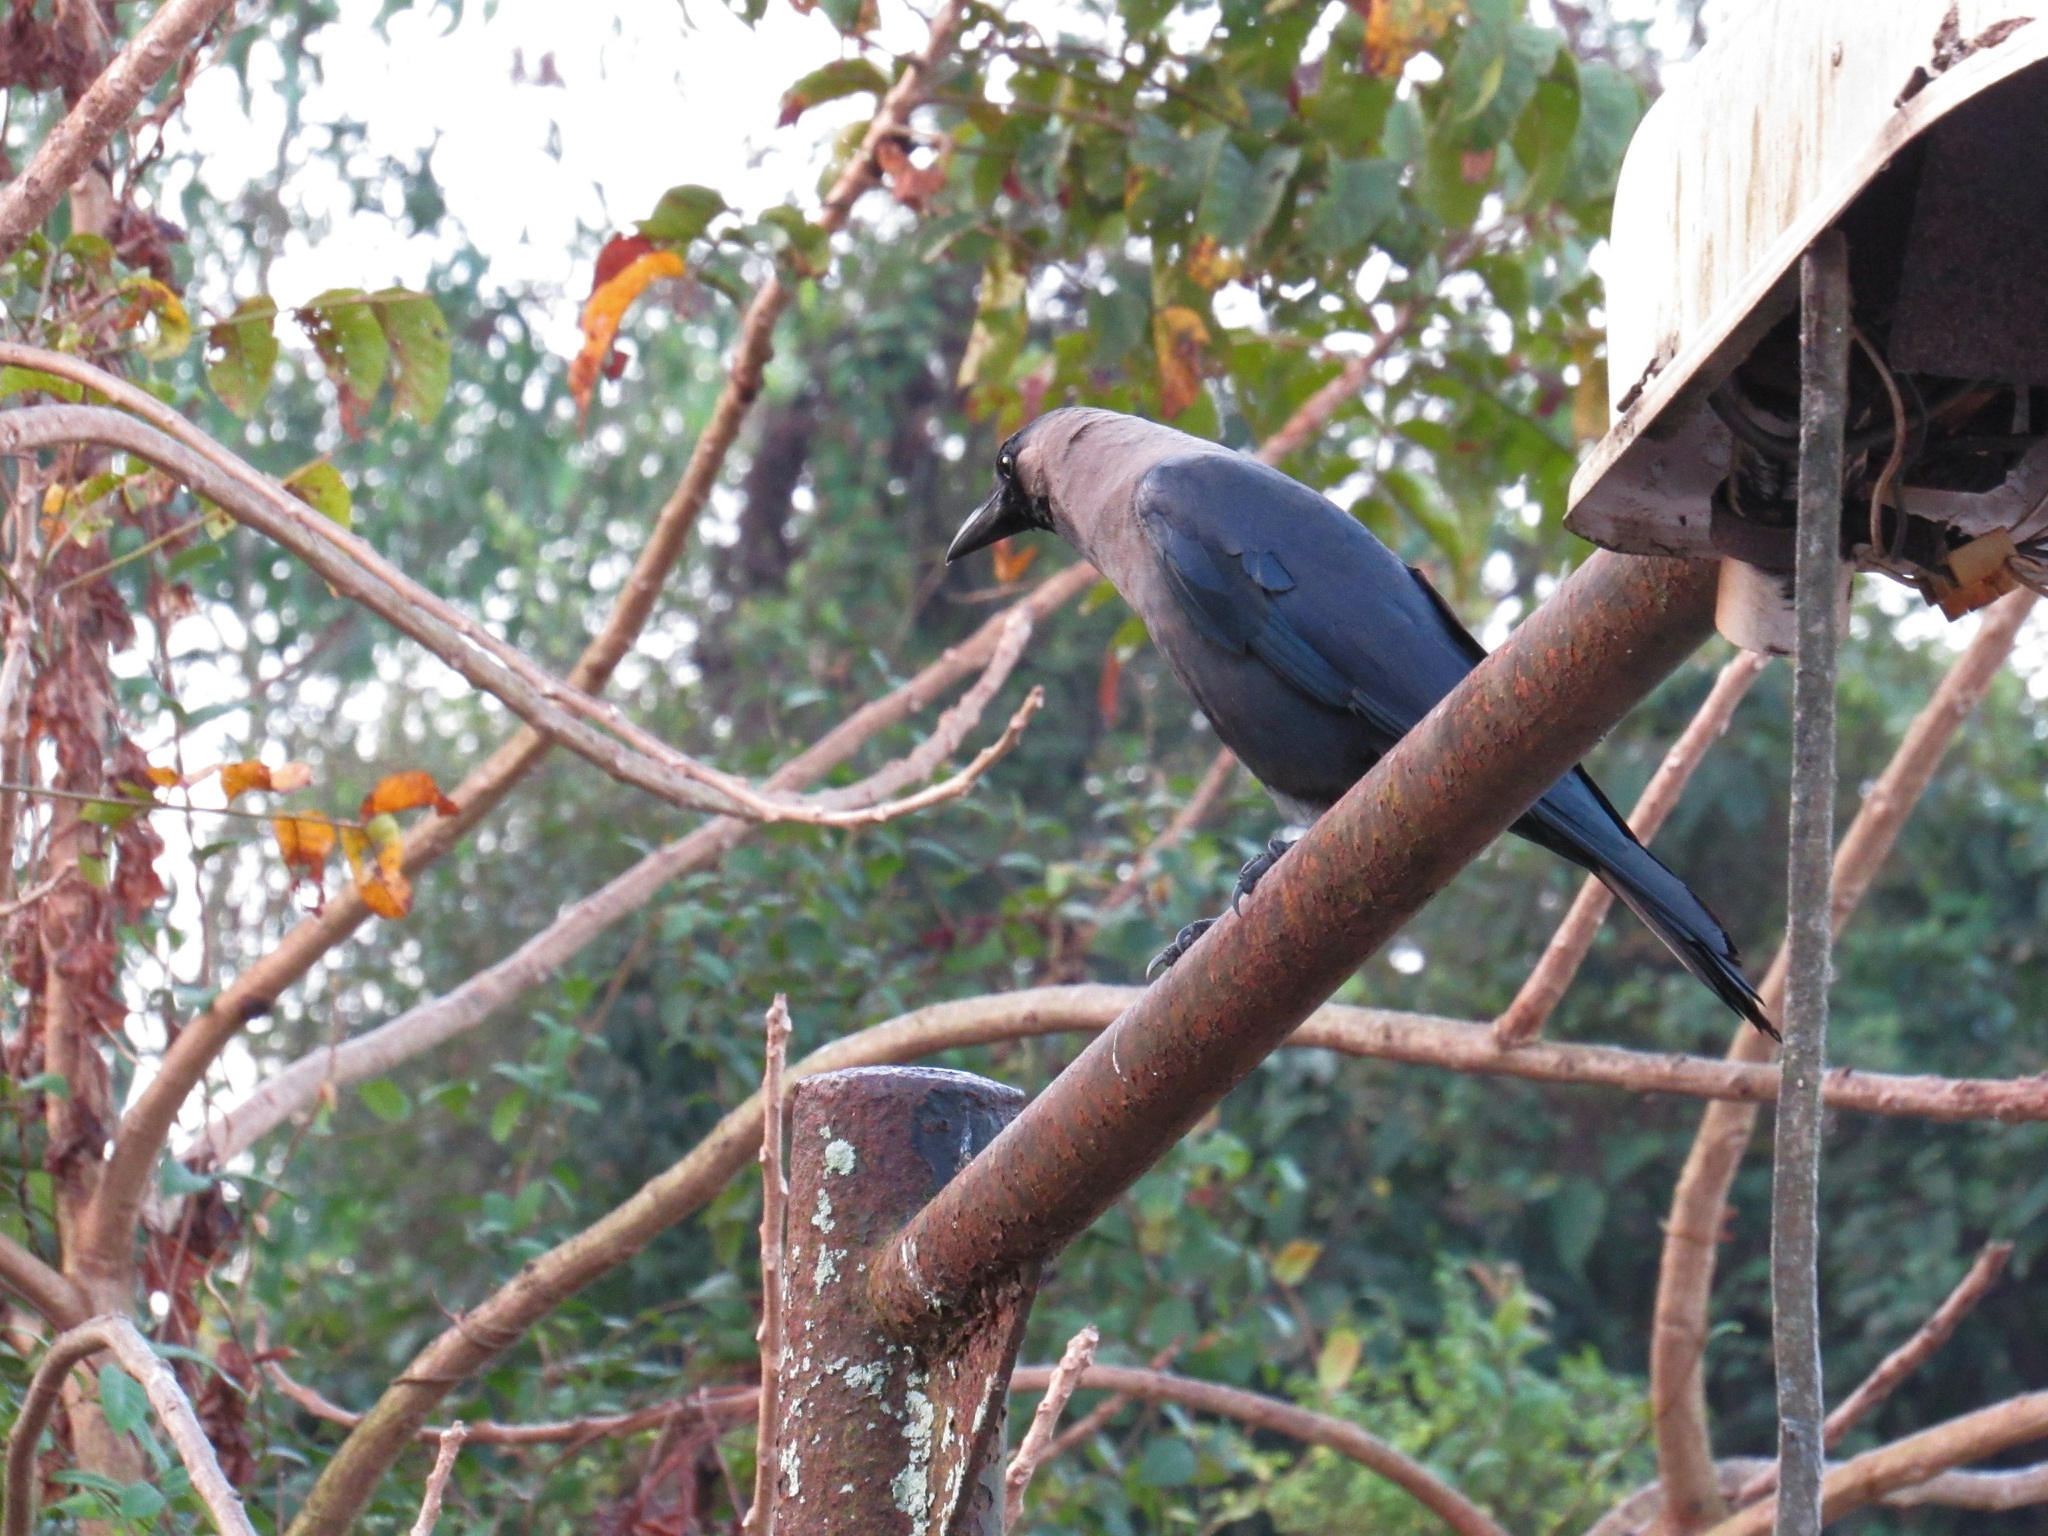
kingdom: Animalia
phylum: Chordata
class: Aves
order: Passeriformes
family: Corvidae
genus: Corvus
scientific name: Corvus splendens
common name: House crow
